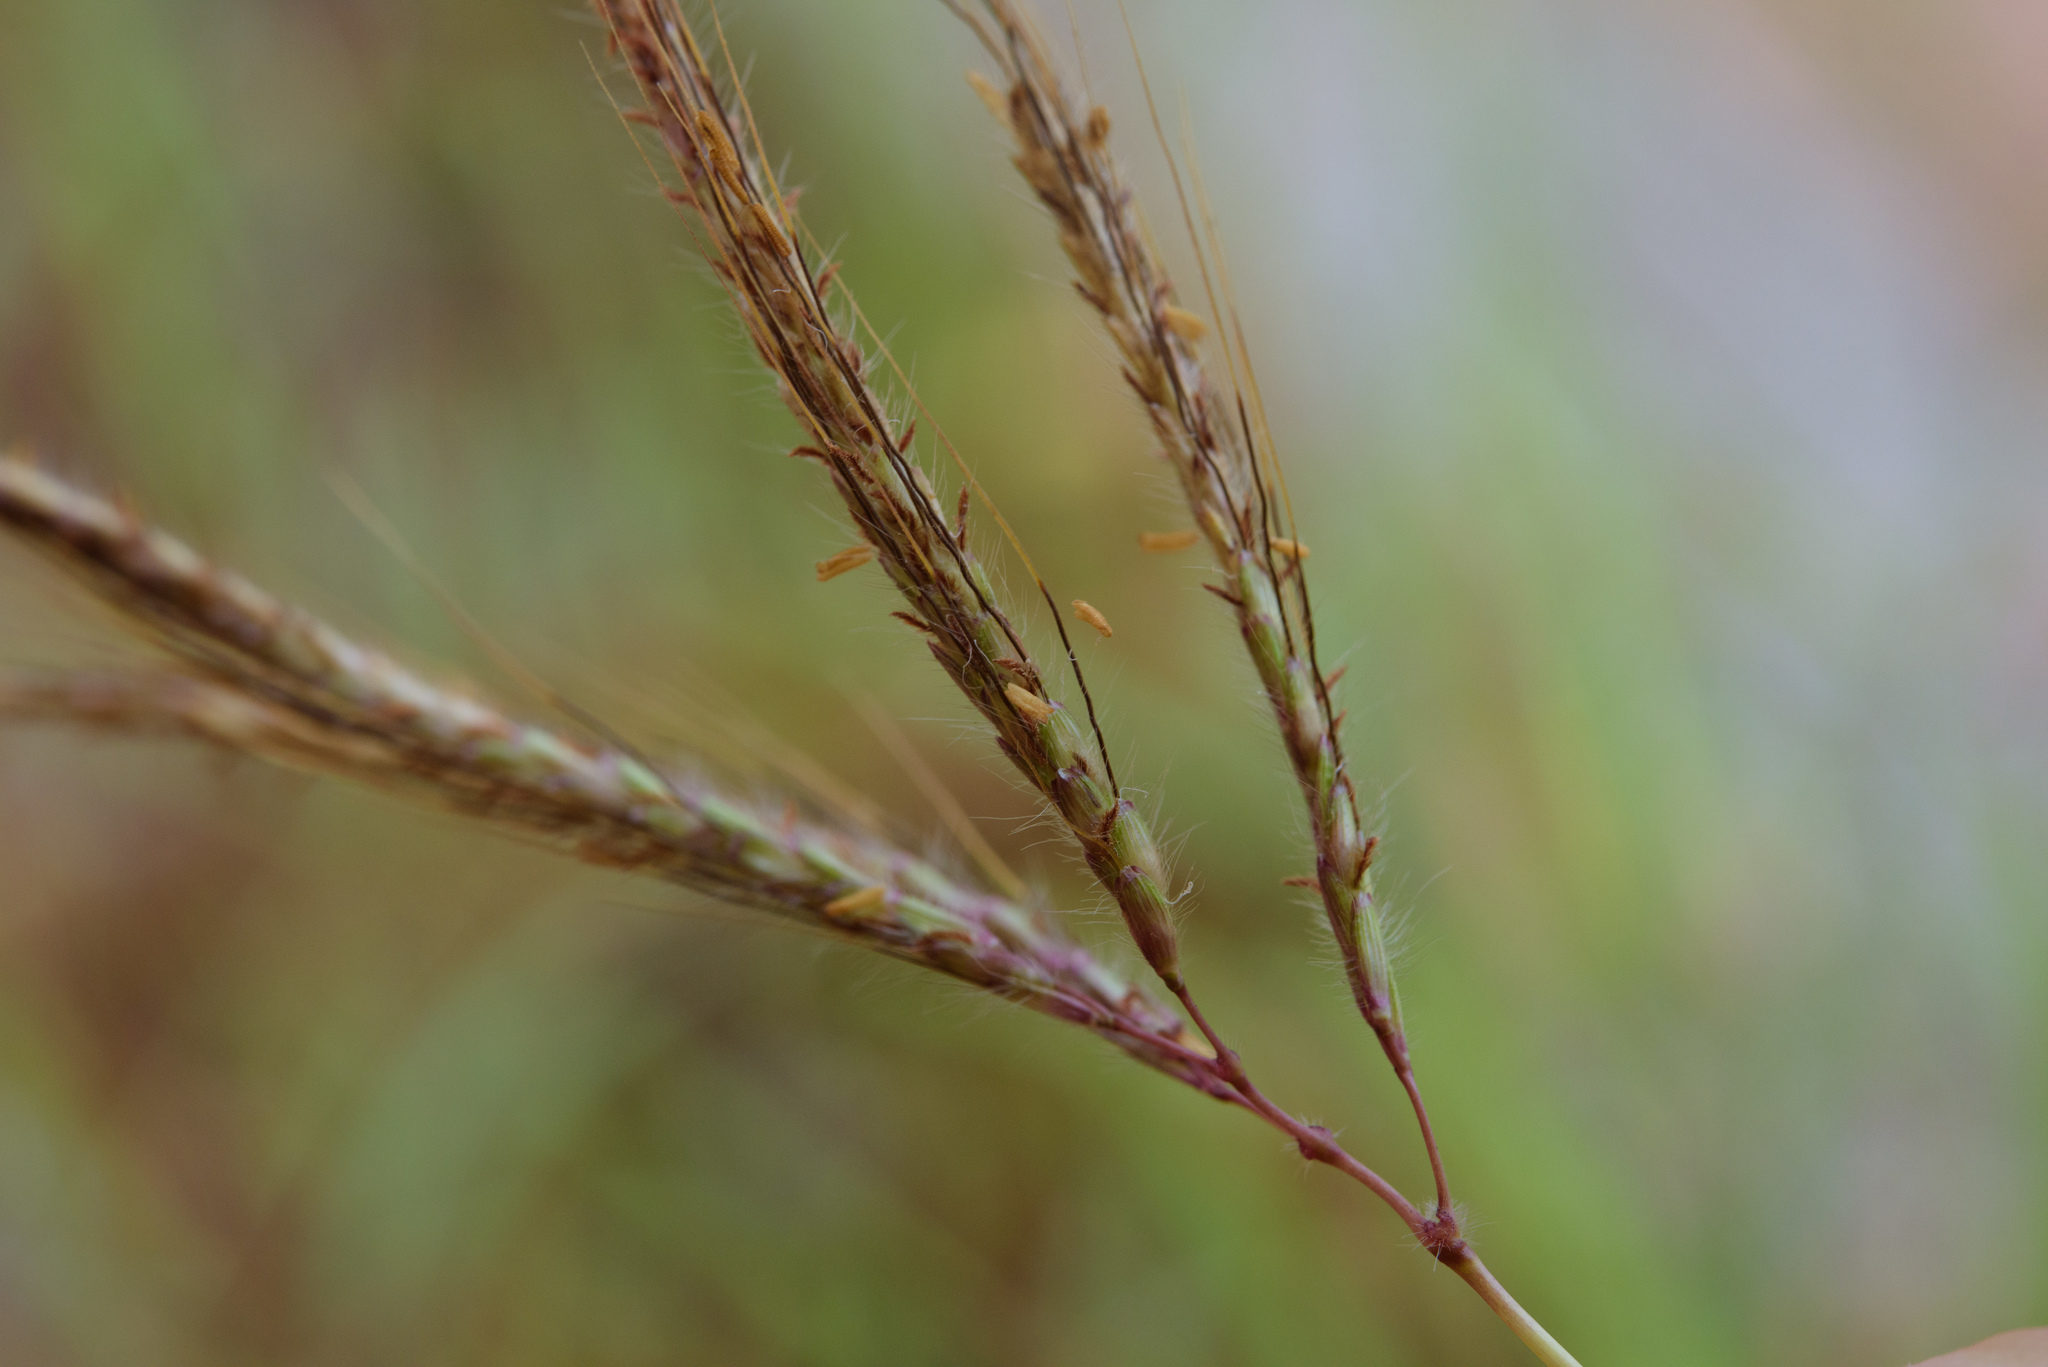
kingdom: Plantae
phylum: Tracheophyta
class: Liliopsida
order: Poales
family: Poaceae
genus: Dichanthium
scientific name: Dichanthium annulatum
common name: Kleberg's bluestem
